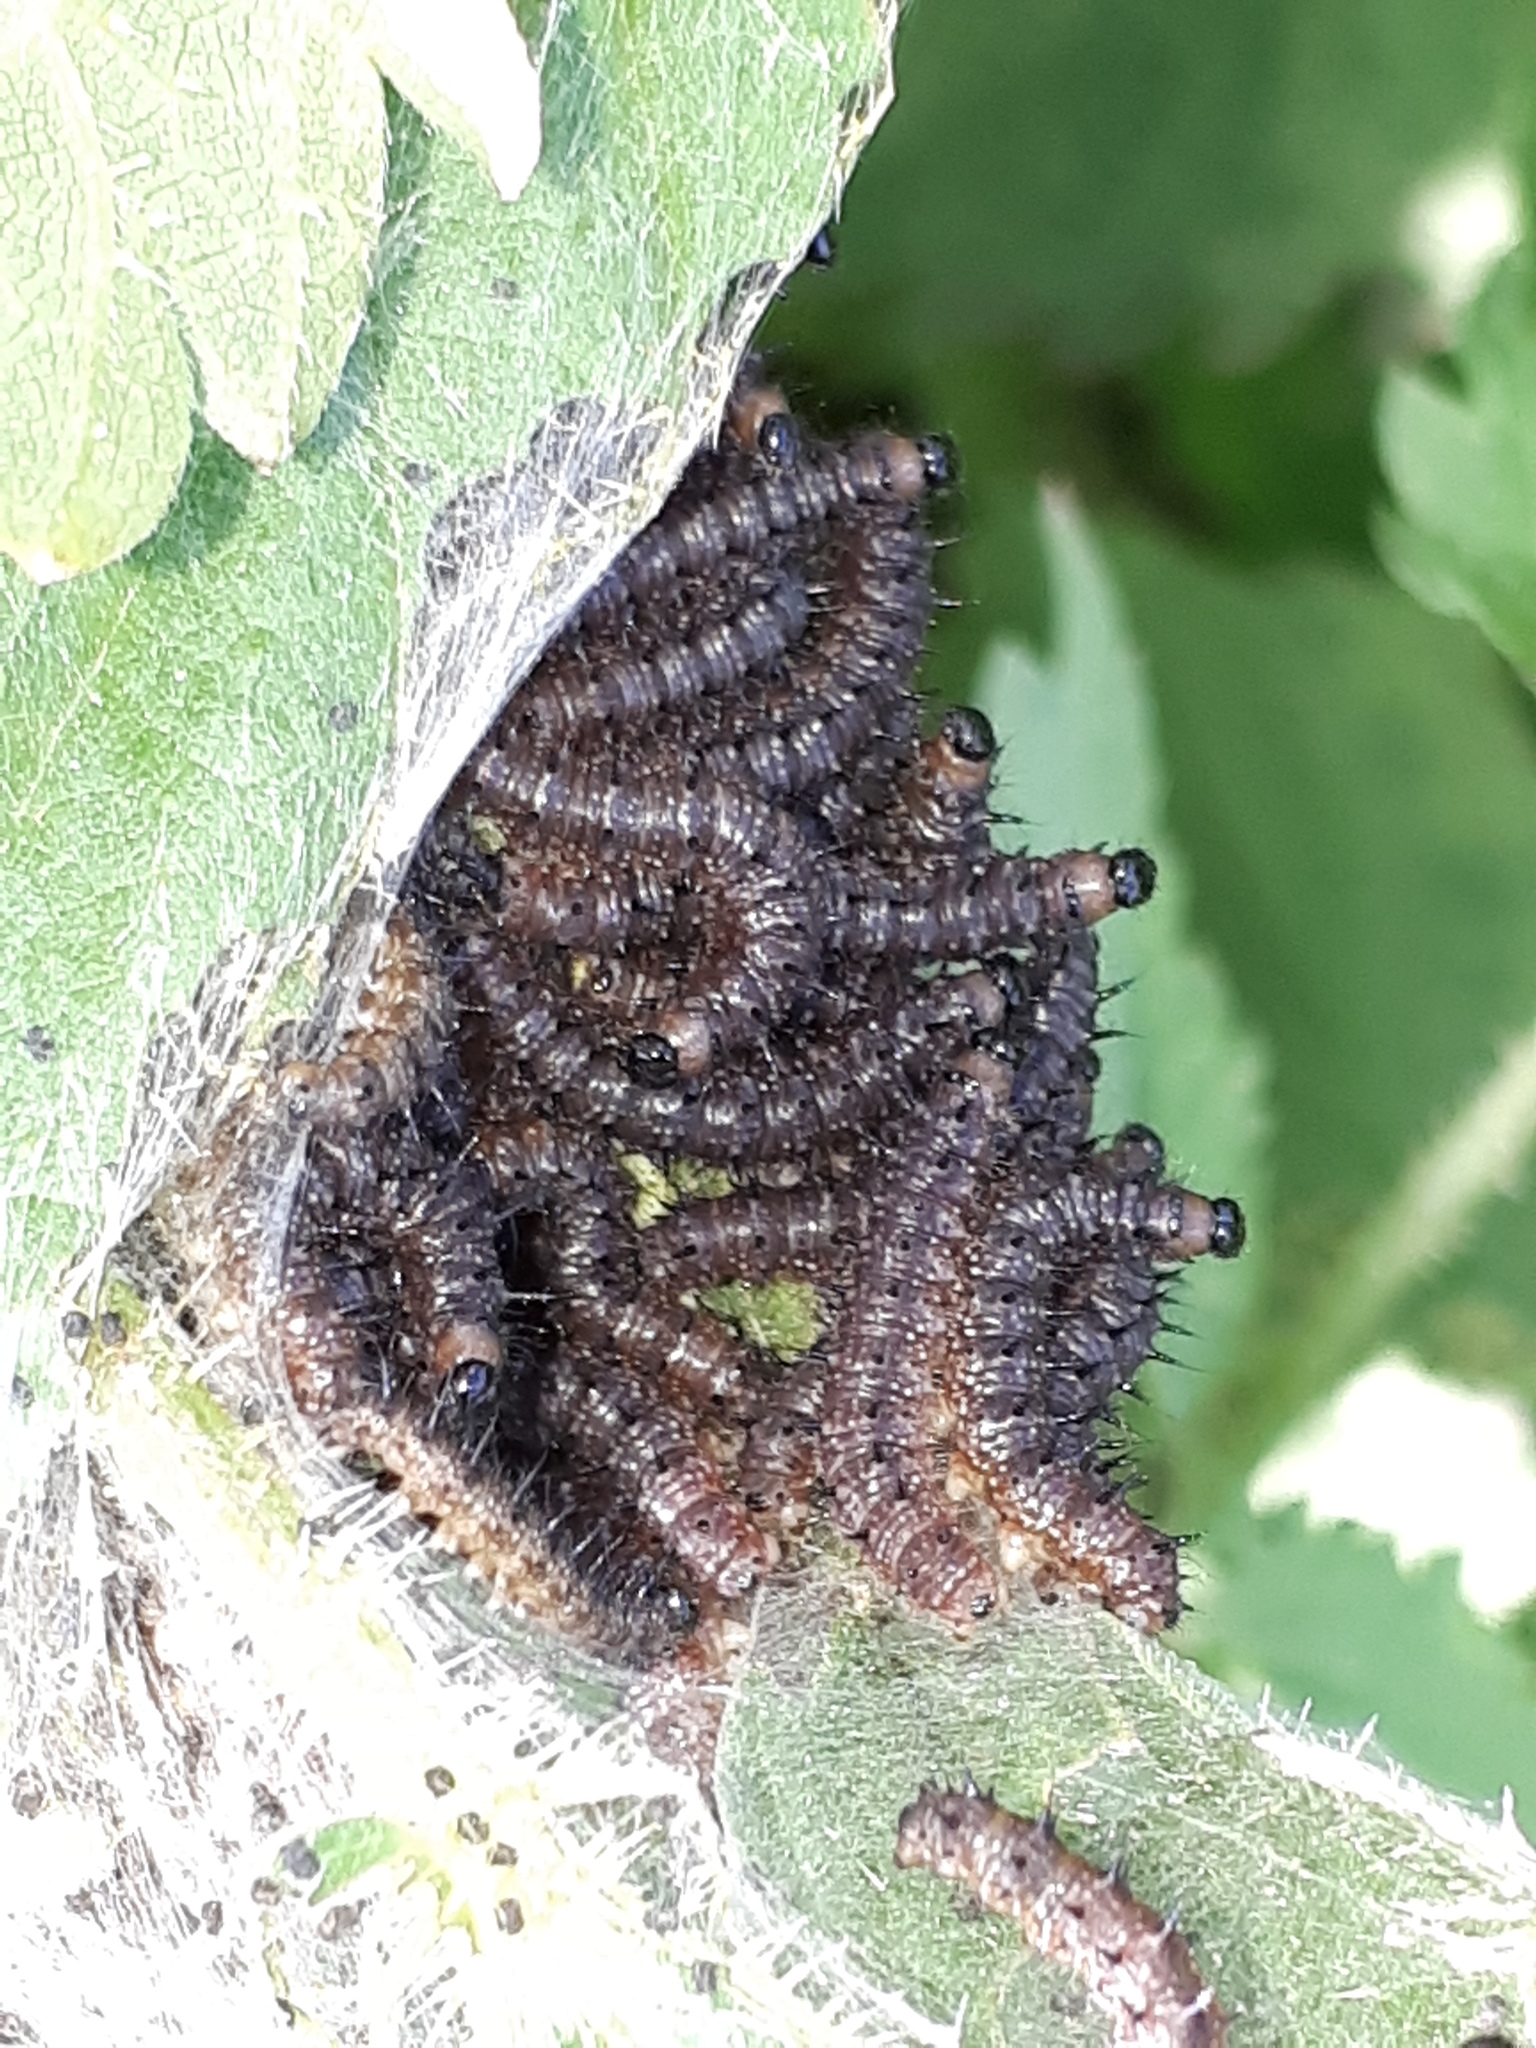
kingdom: Animalia
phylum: Arthropoda
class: Insecta
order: Lepidoptera
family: Nymphalidae
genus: Aglais
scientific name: Aglais io
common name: Peacock
